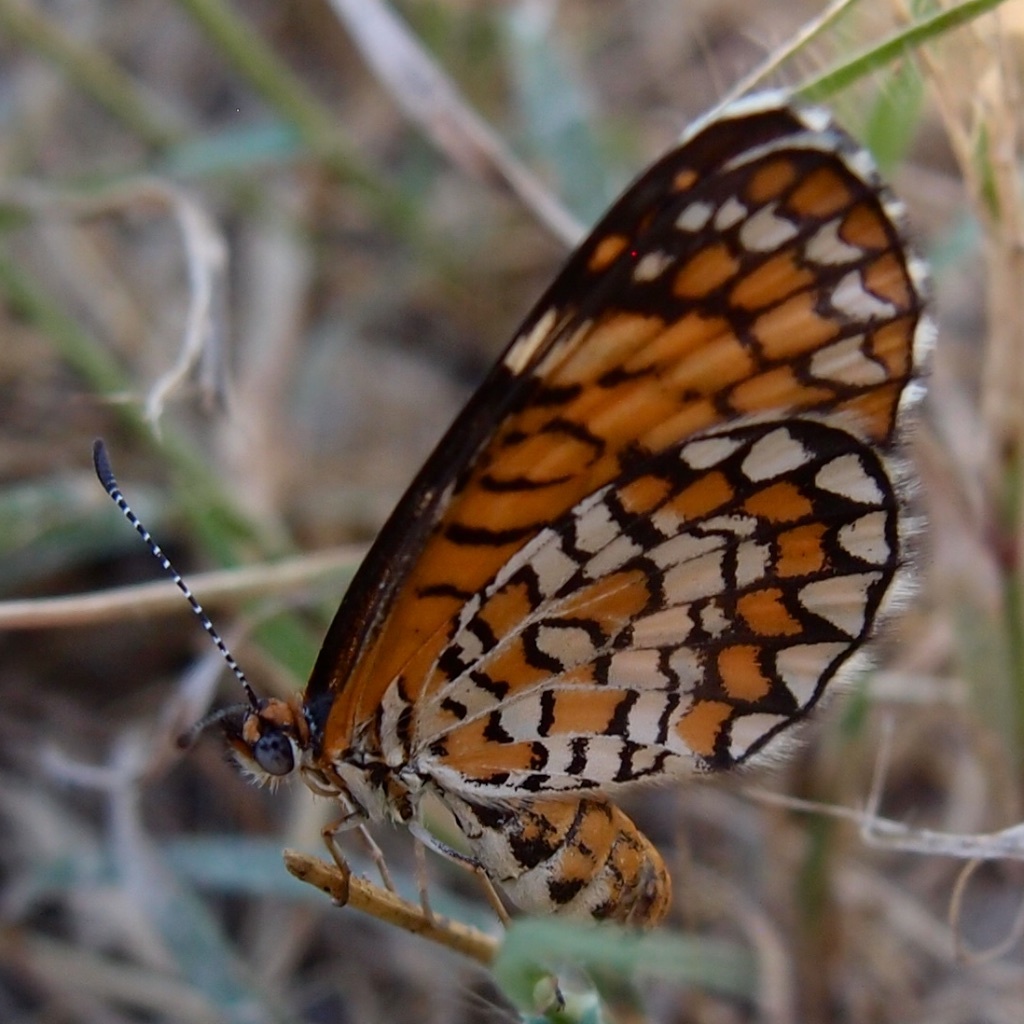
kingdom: Animalia
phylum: Arthropoda
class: Insecta
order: Lepidoptera
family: Nymphalidae
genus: Dymasia
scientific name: Dymasia dymas
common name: Tiny checkerspot
